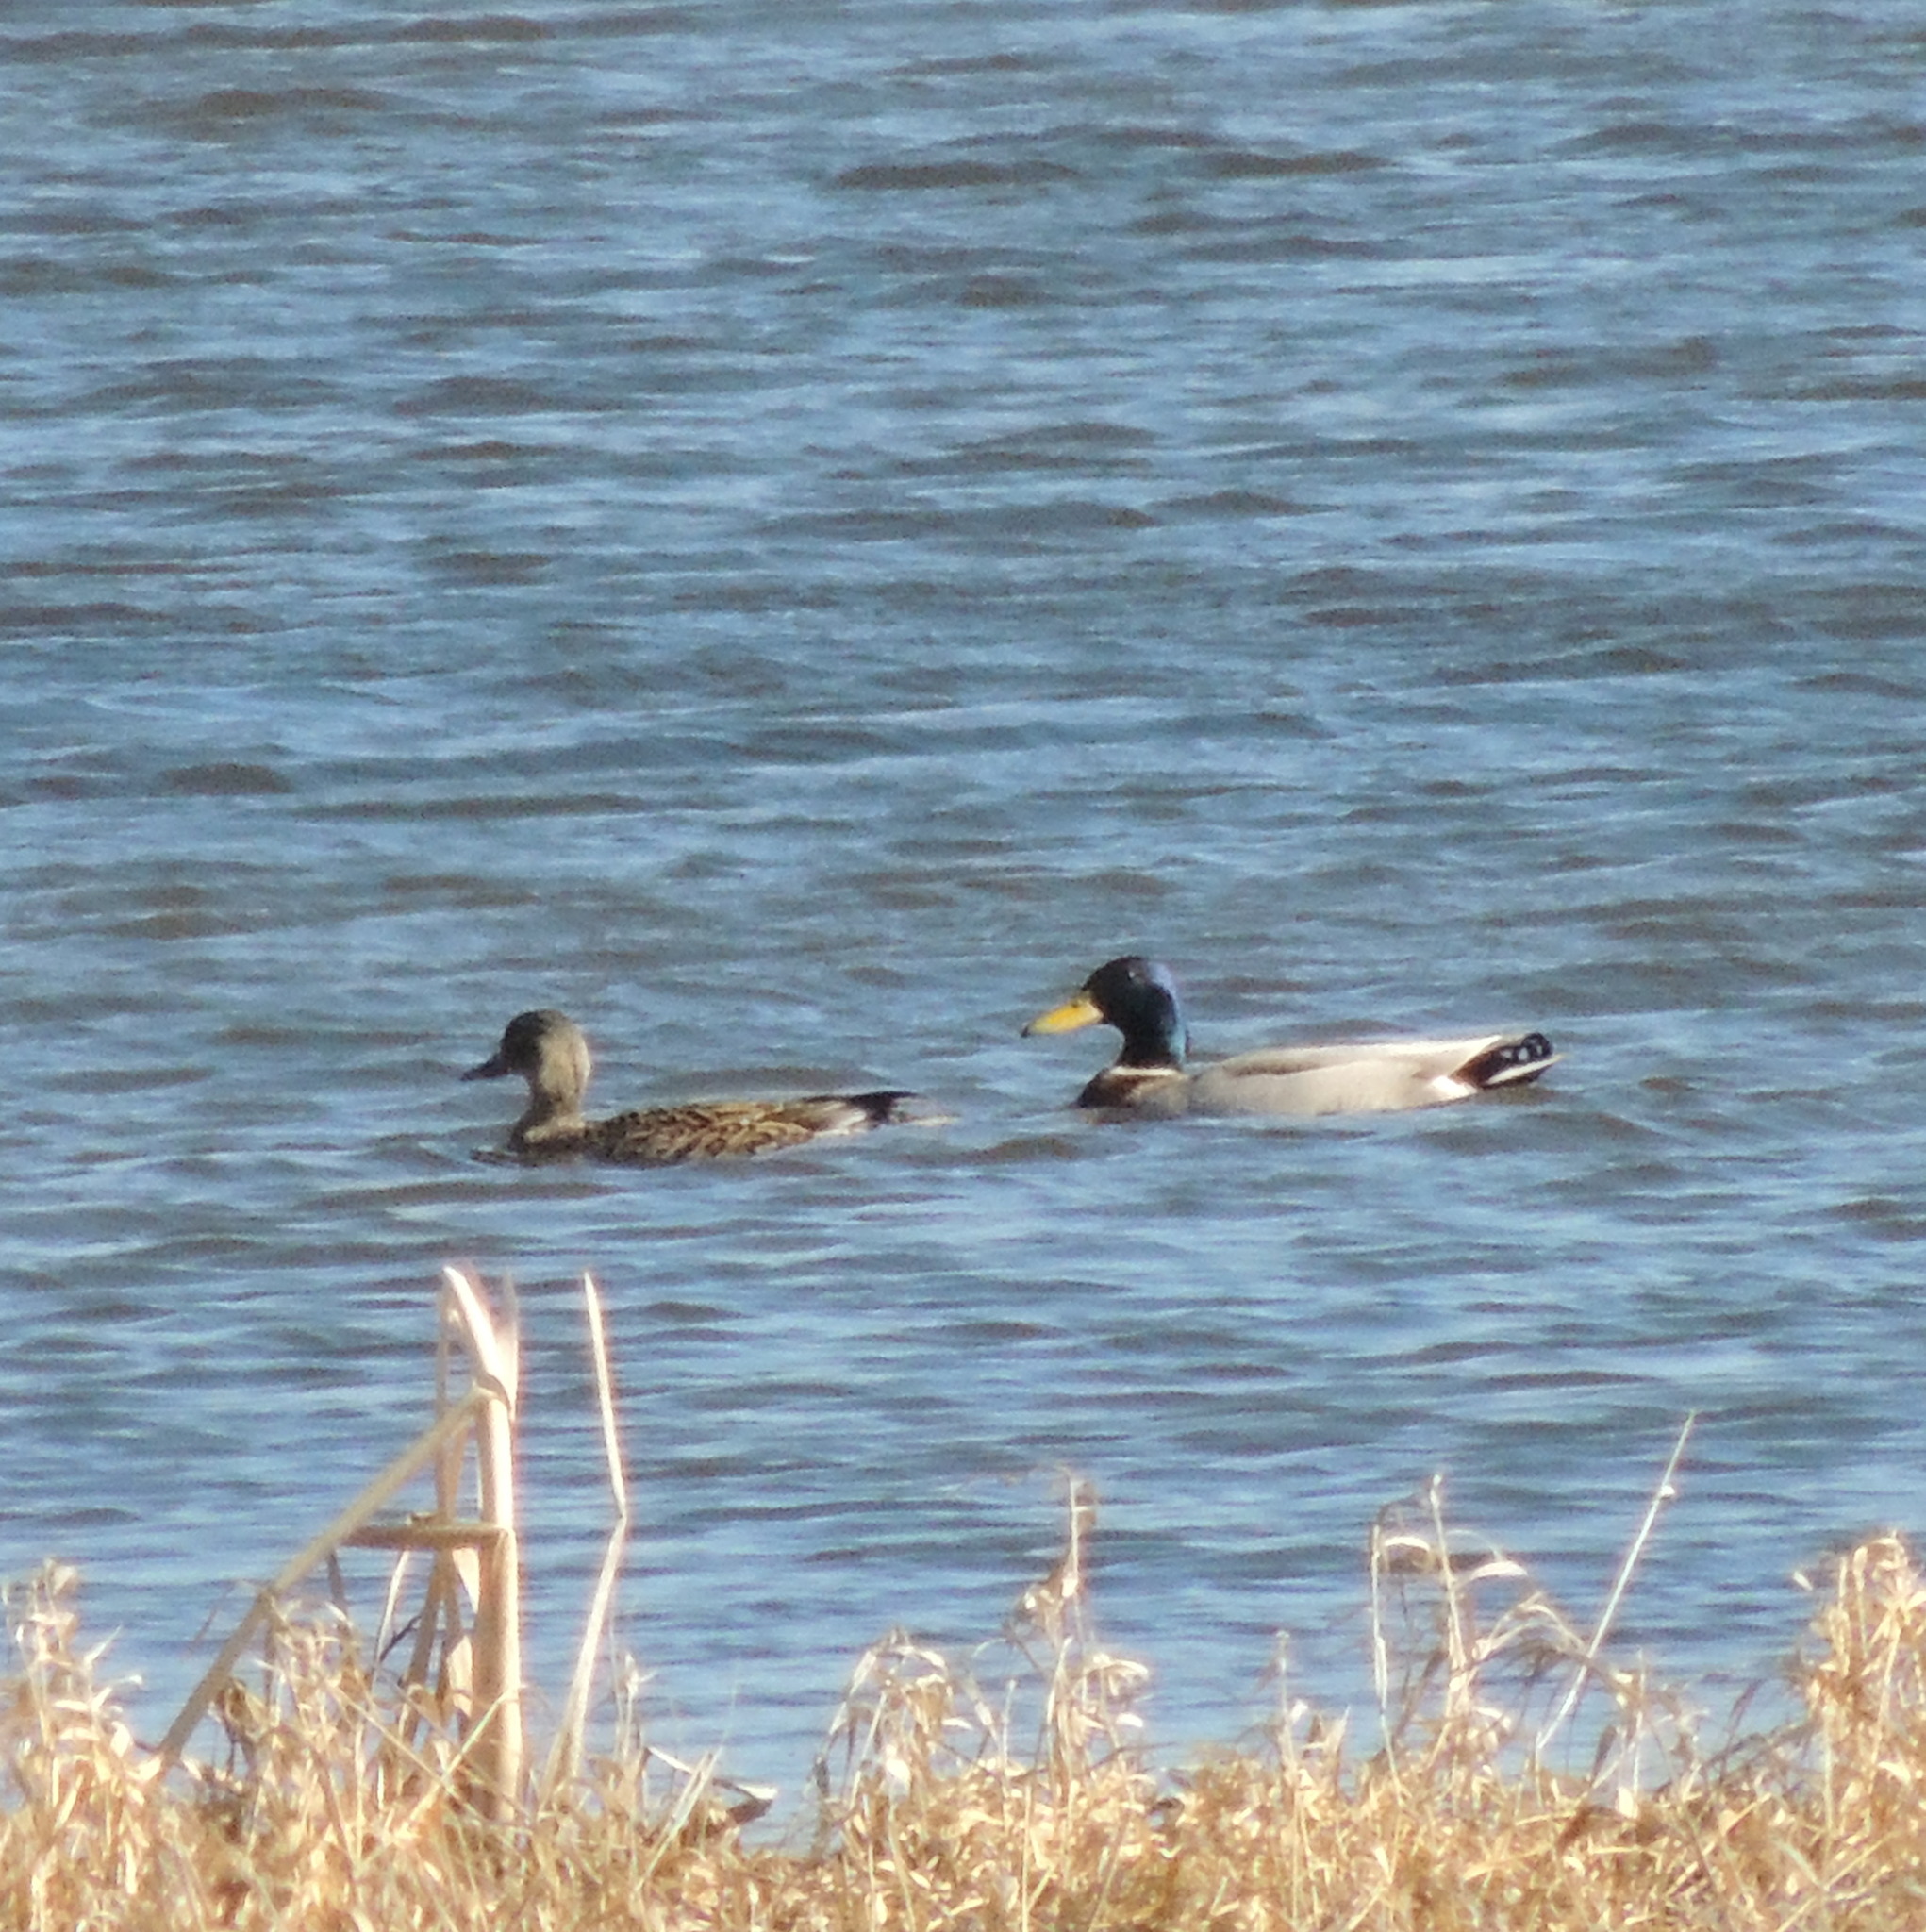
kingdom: Animalia
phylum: Chordata
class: Aves
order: Anseriformes
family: Anatidae
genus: Anas
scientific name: Anas platyrhynchos
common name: Mallard
